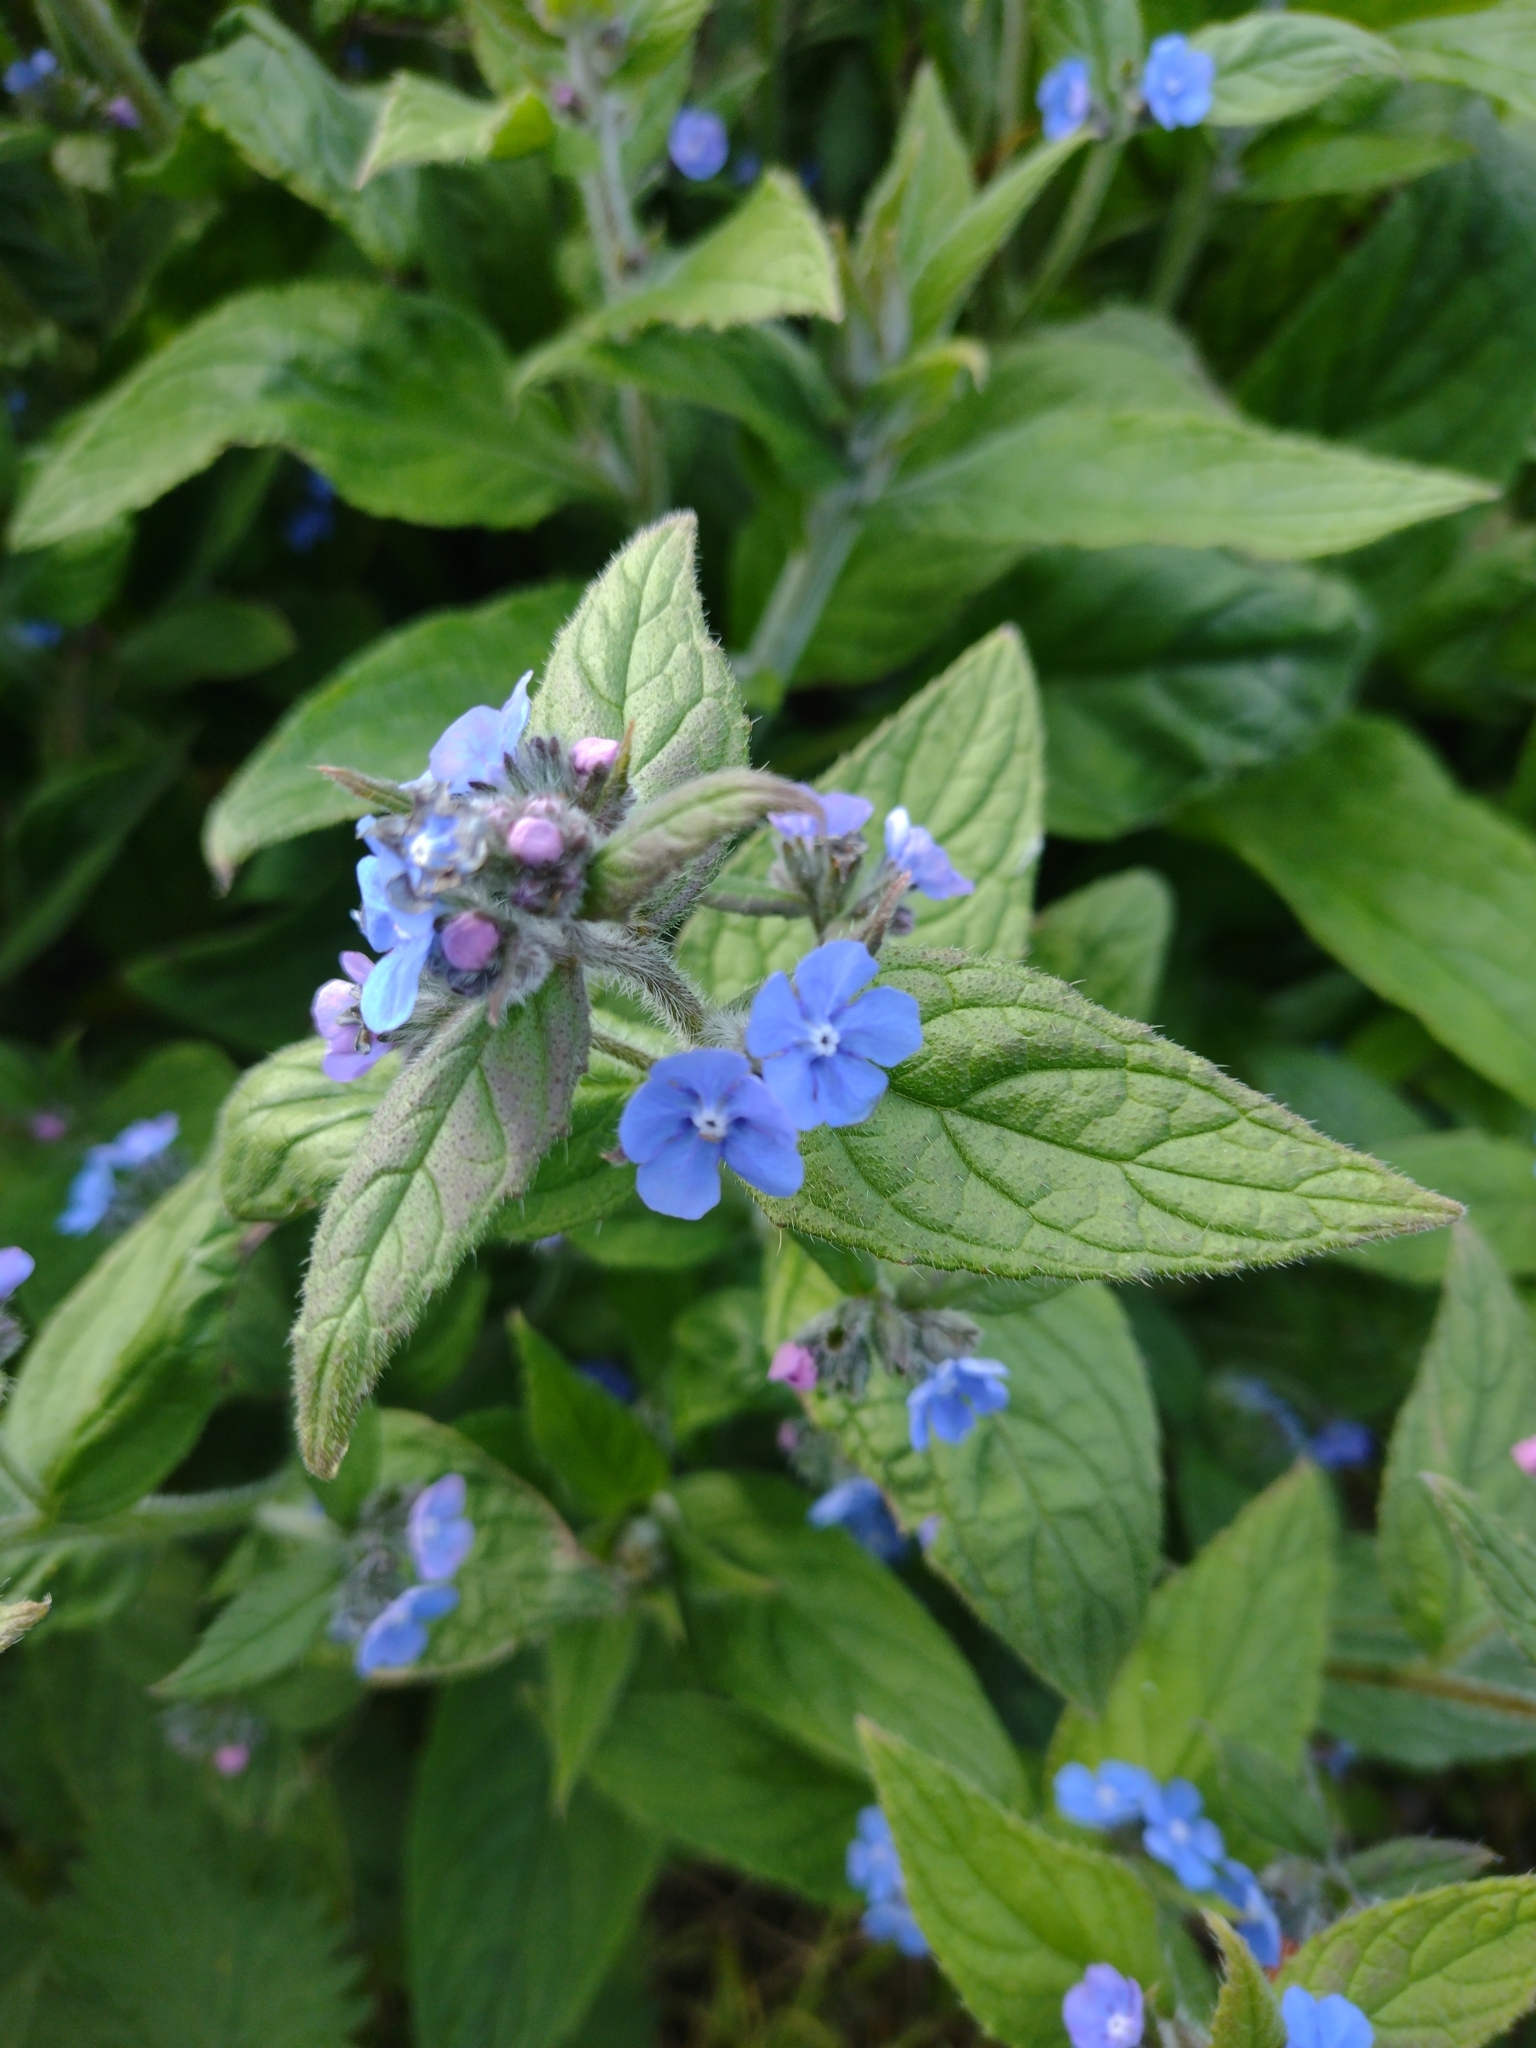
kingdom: Plantae
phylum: Tracheophyta
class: Magnoliopsida
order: Boraginales
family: Boraginaceae
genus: Pentaglottis
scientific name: Pentaglottis sempervirens
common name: Green alkanet
